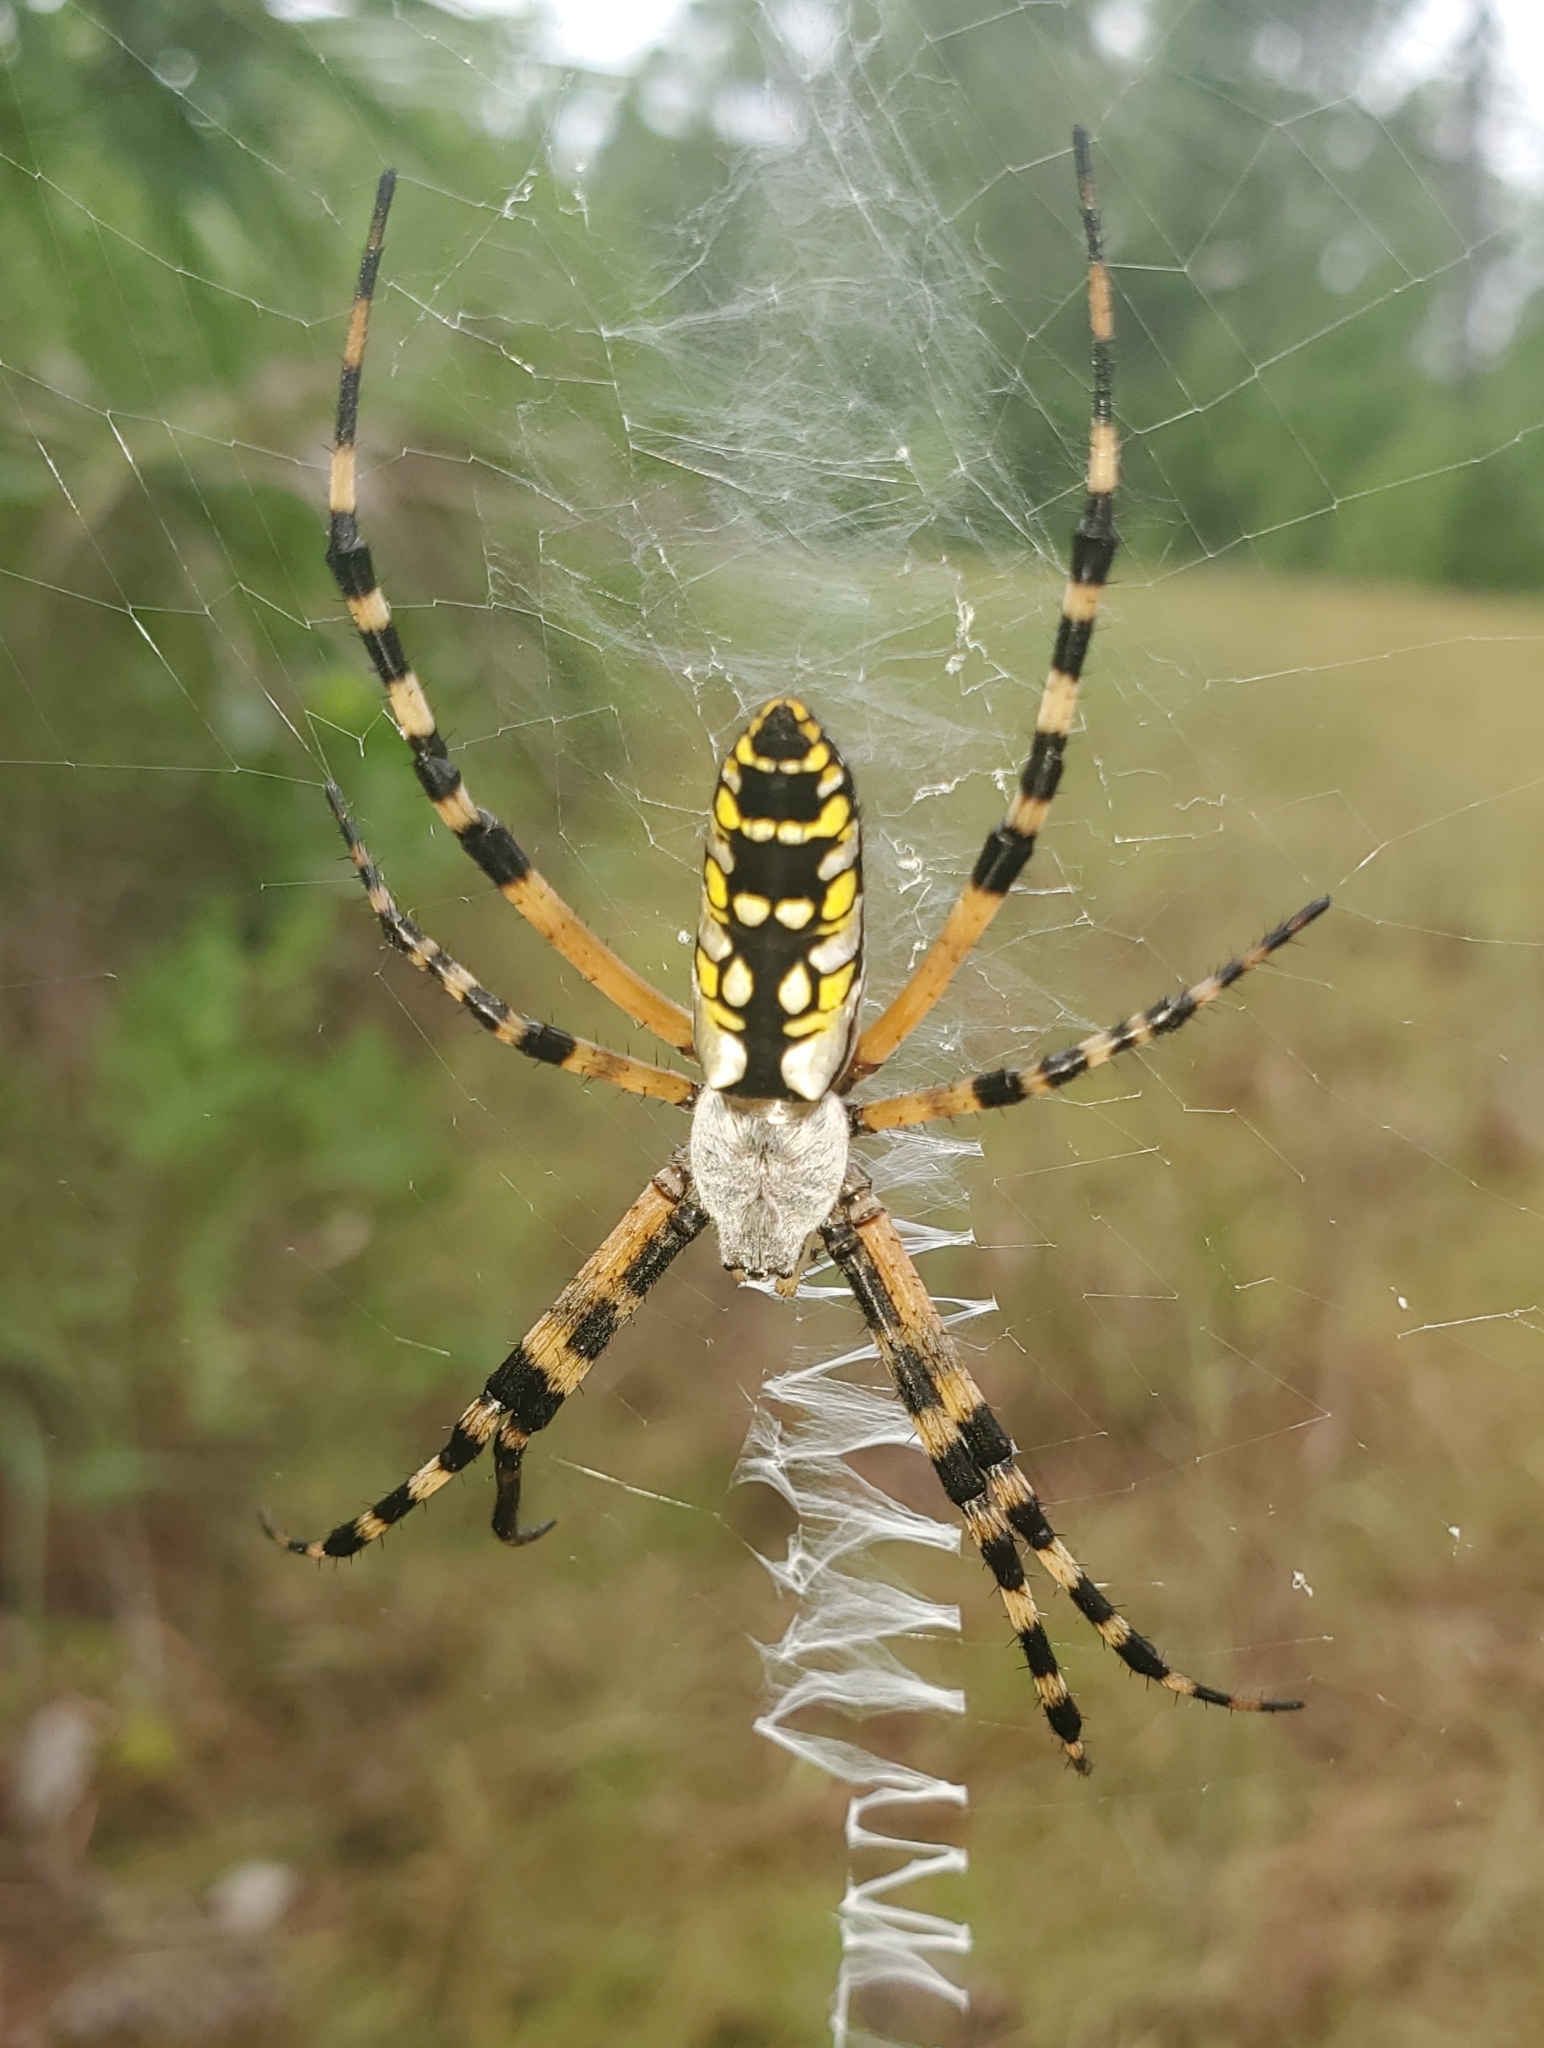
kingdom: Animalia
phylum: Arthropoda
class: Arachnida
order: Araneae
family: Araneidae
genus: Argiope
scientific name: Argiope aurantia
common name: Orb weavers
